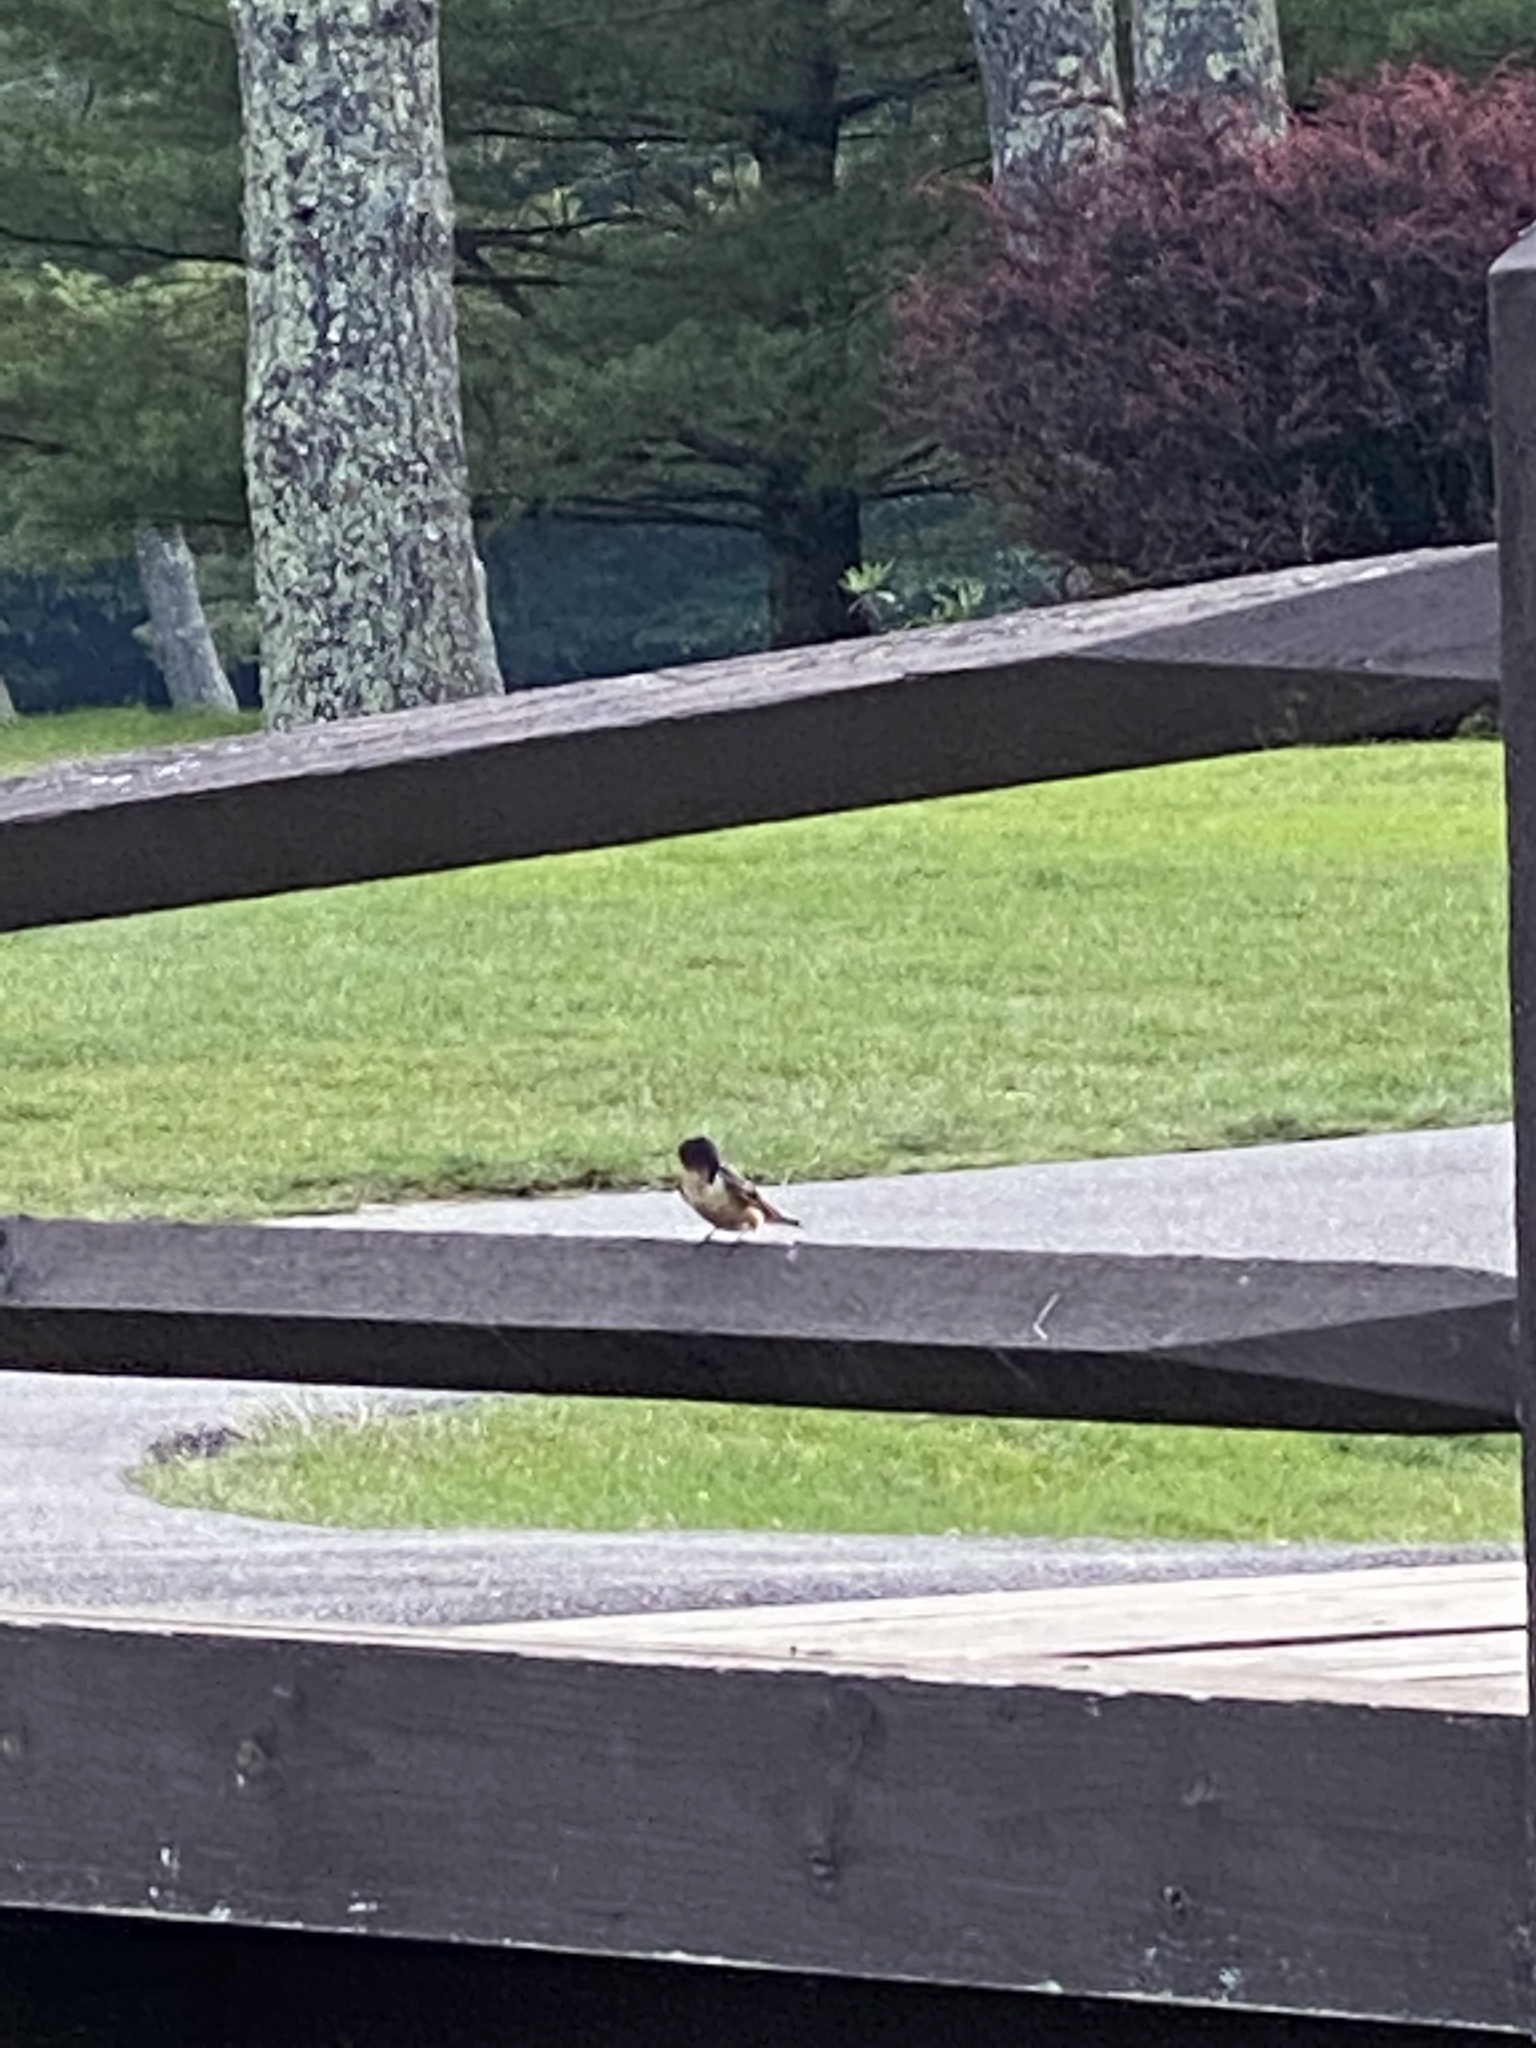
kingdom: Animalia
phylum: Chordata
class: Aves
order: Passeriformes
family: Hirundinidae
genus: Hirundo
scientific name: Hirundo rustica
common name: Barn swallow
